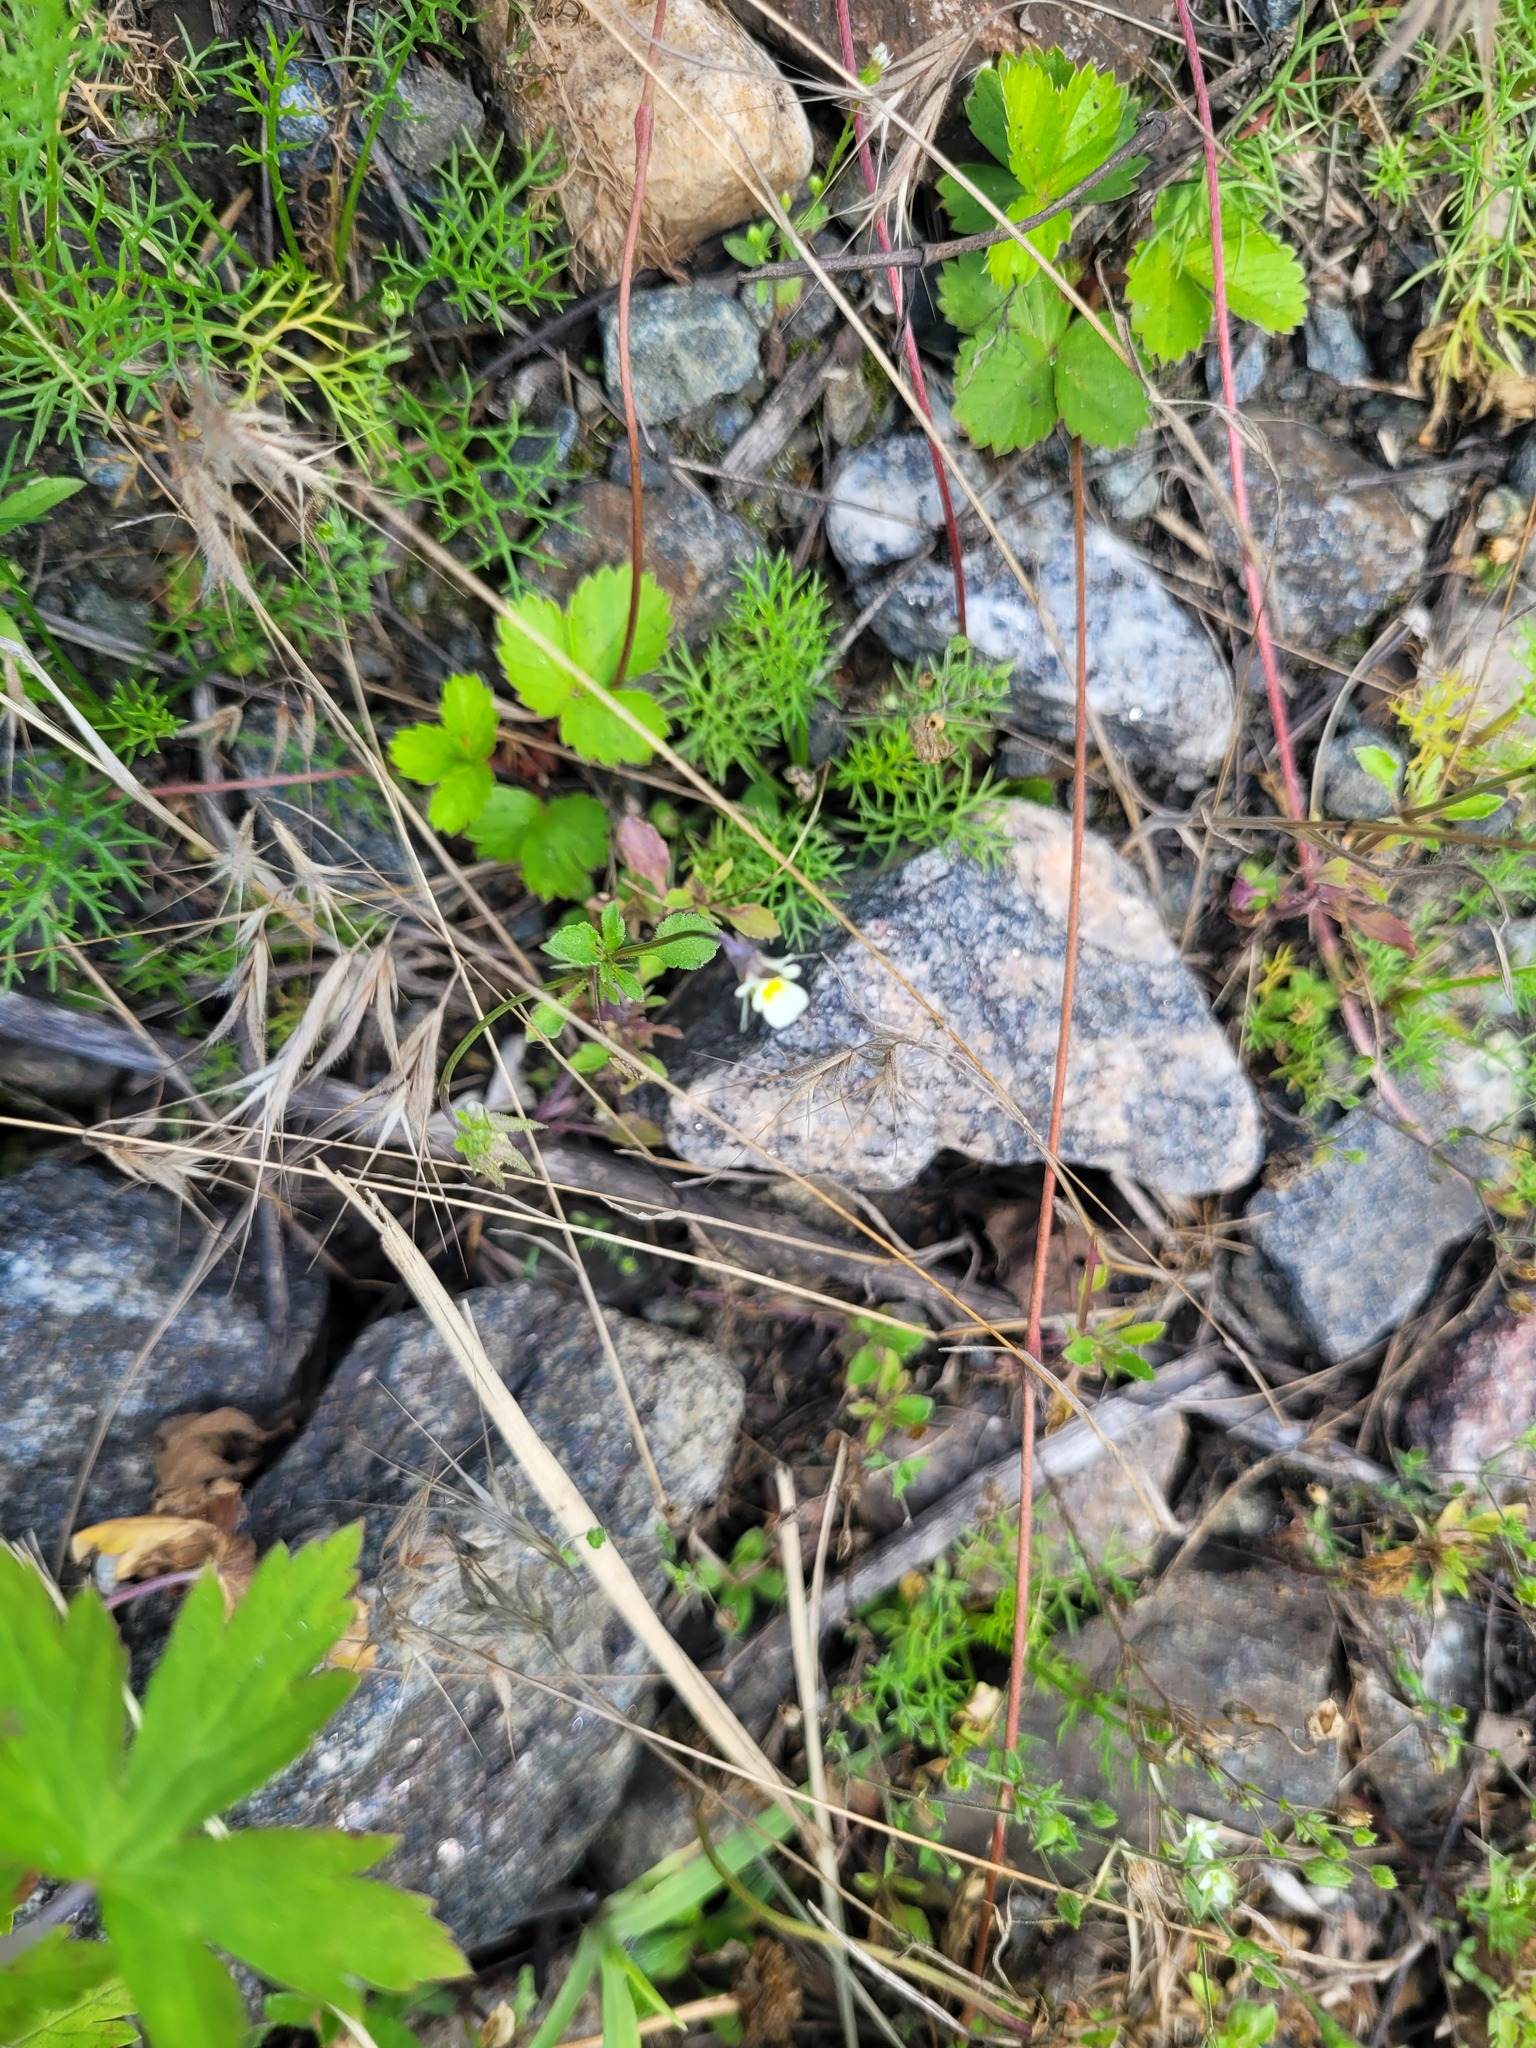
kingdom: Plantae
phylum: Tracheophyta
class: Magnoliopsida
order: Malpighiales
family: Violaceae
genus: Viola
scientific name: Viola arvensis
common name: Field pansy
